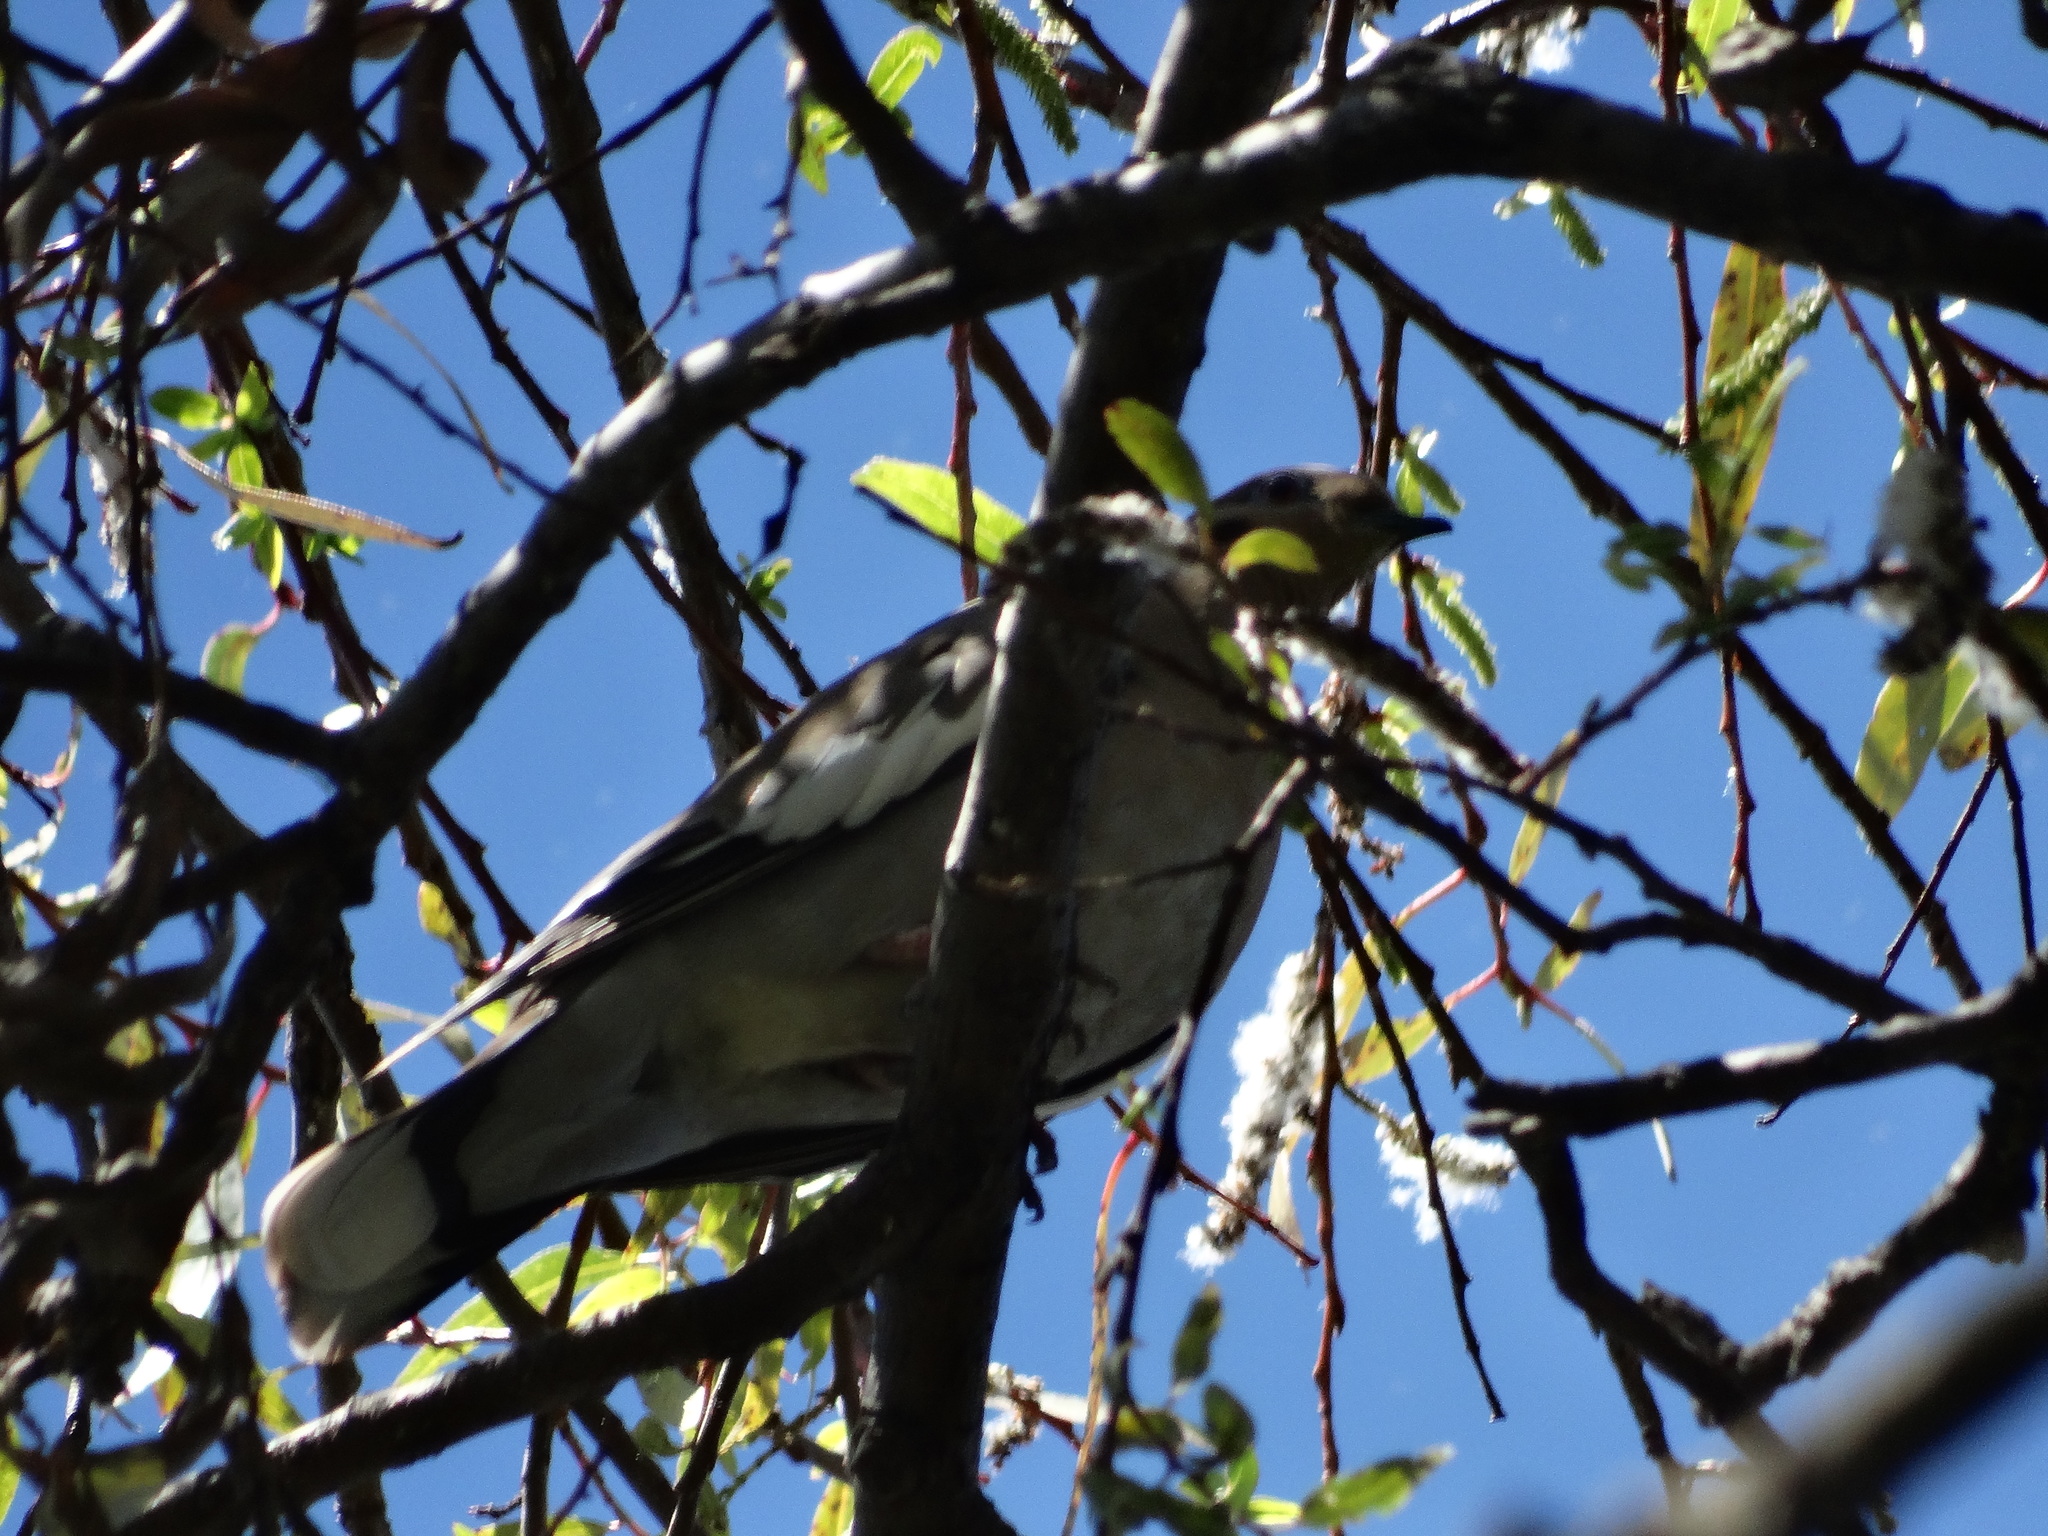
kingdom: Animalia
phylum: Chordata
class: Aves
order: Columbiformes
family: Columbidae
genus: Zenaida
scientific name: Zenaida asiatica
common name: White-winged dove
